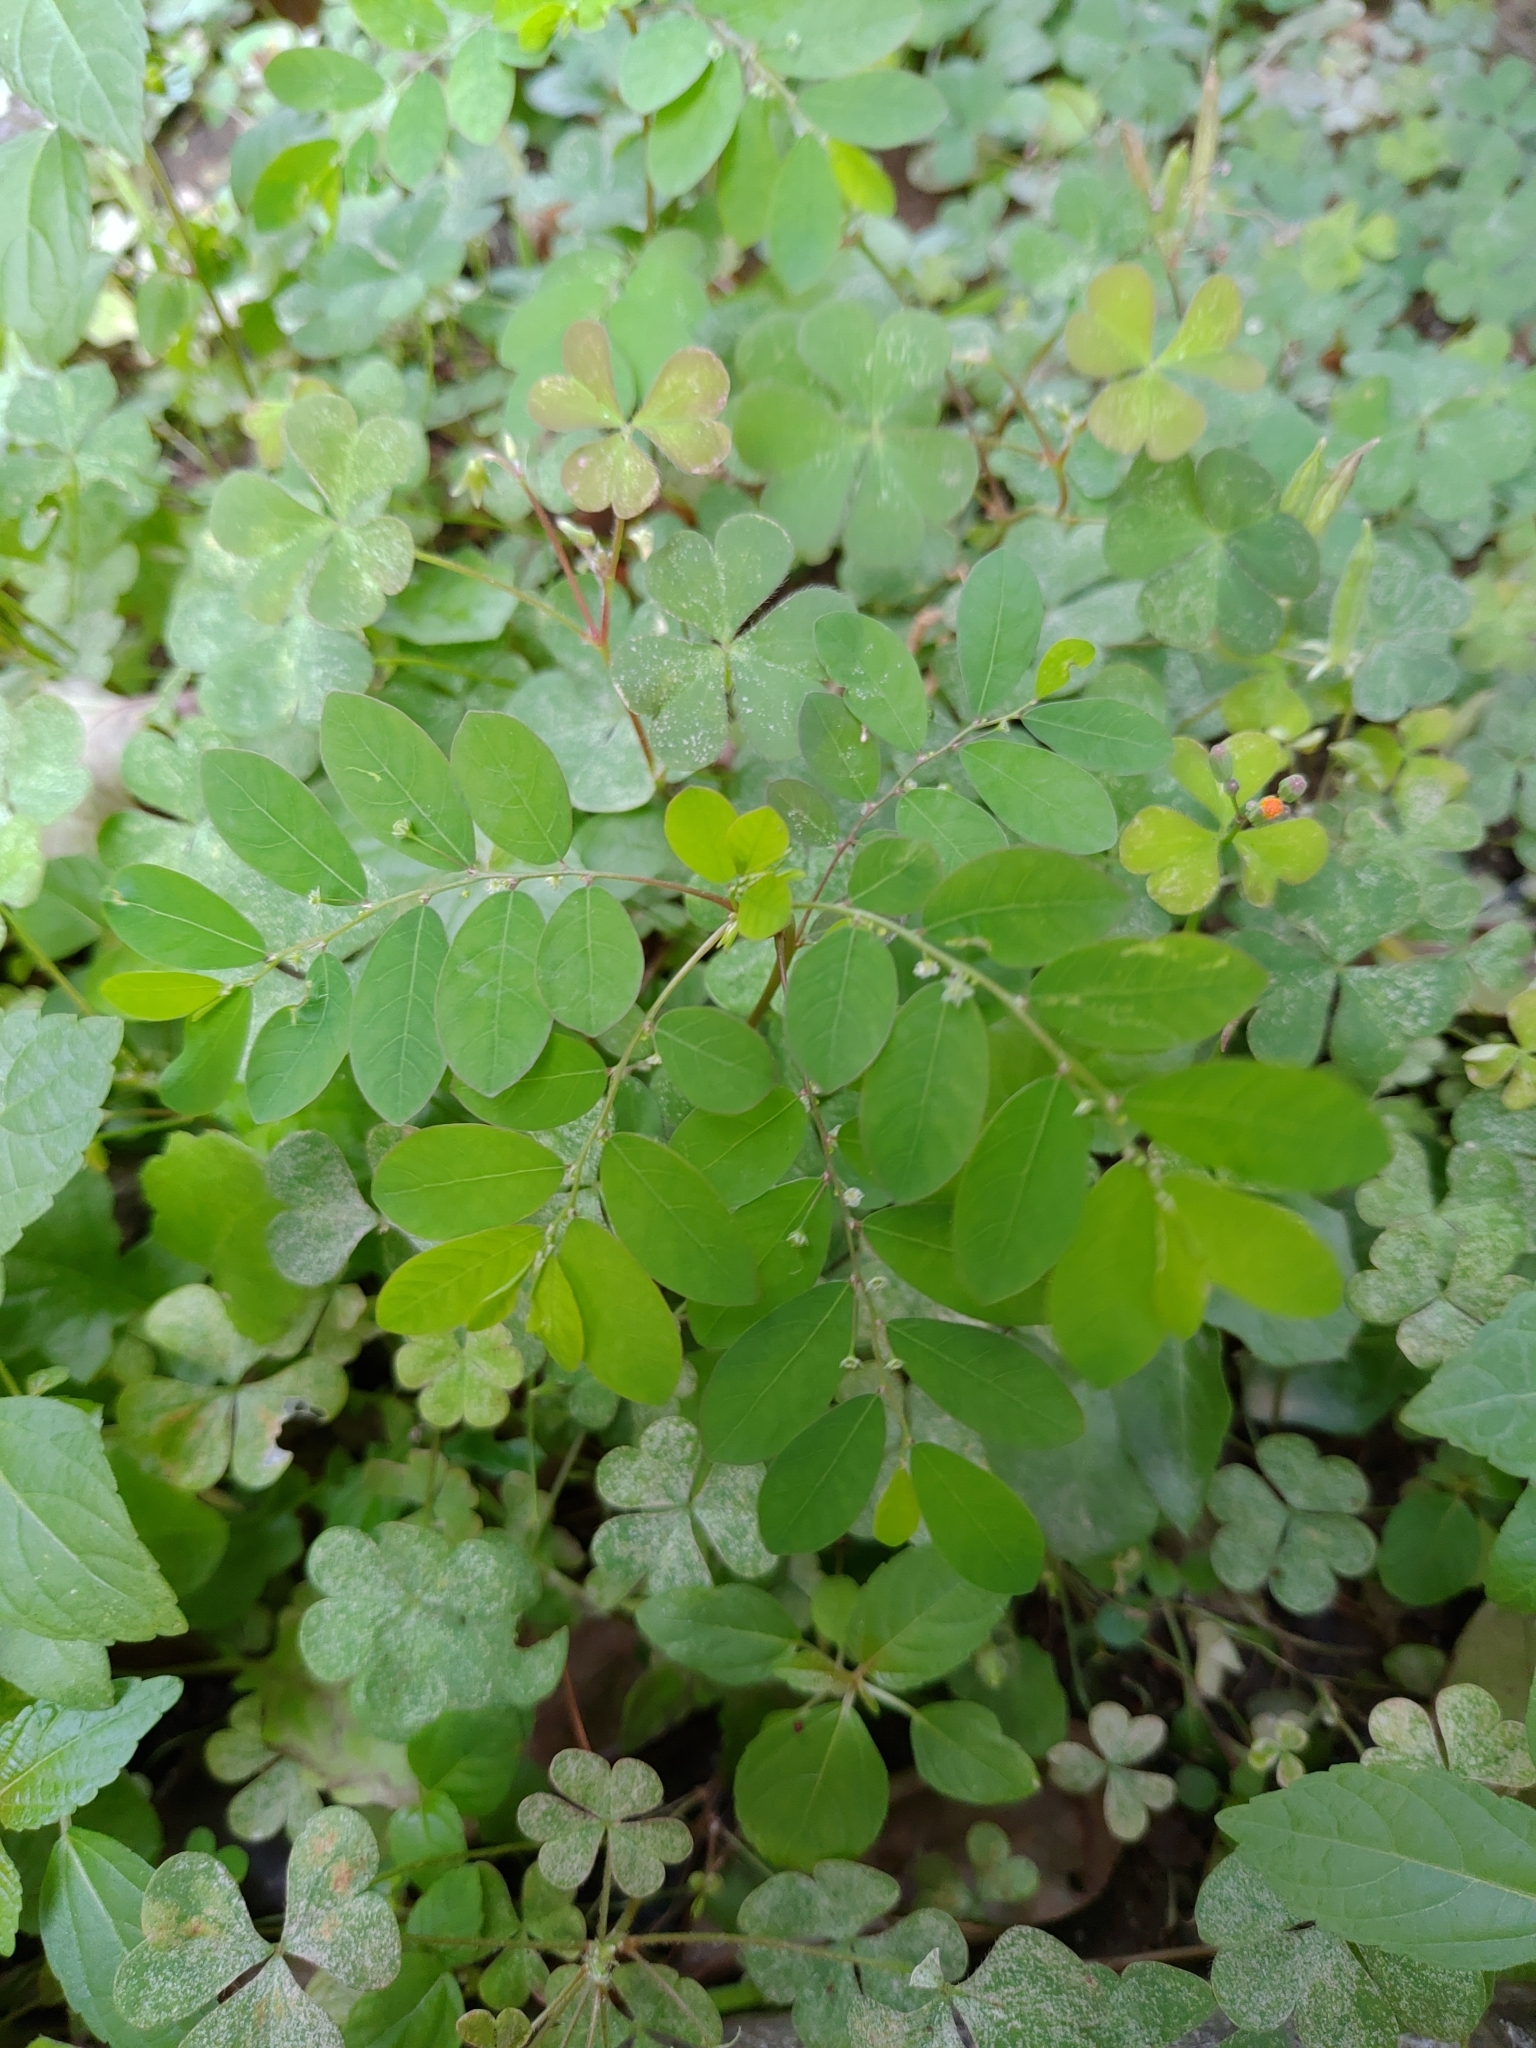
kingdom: Plantae
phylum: Tracheophyta
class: Magnoliopsida
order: Malpighiales
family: Phyllanthaceae
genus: Phyllanthus
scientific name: Phyllanthus tenellus
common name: Mascarene island leaf-flower
